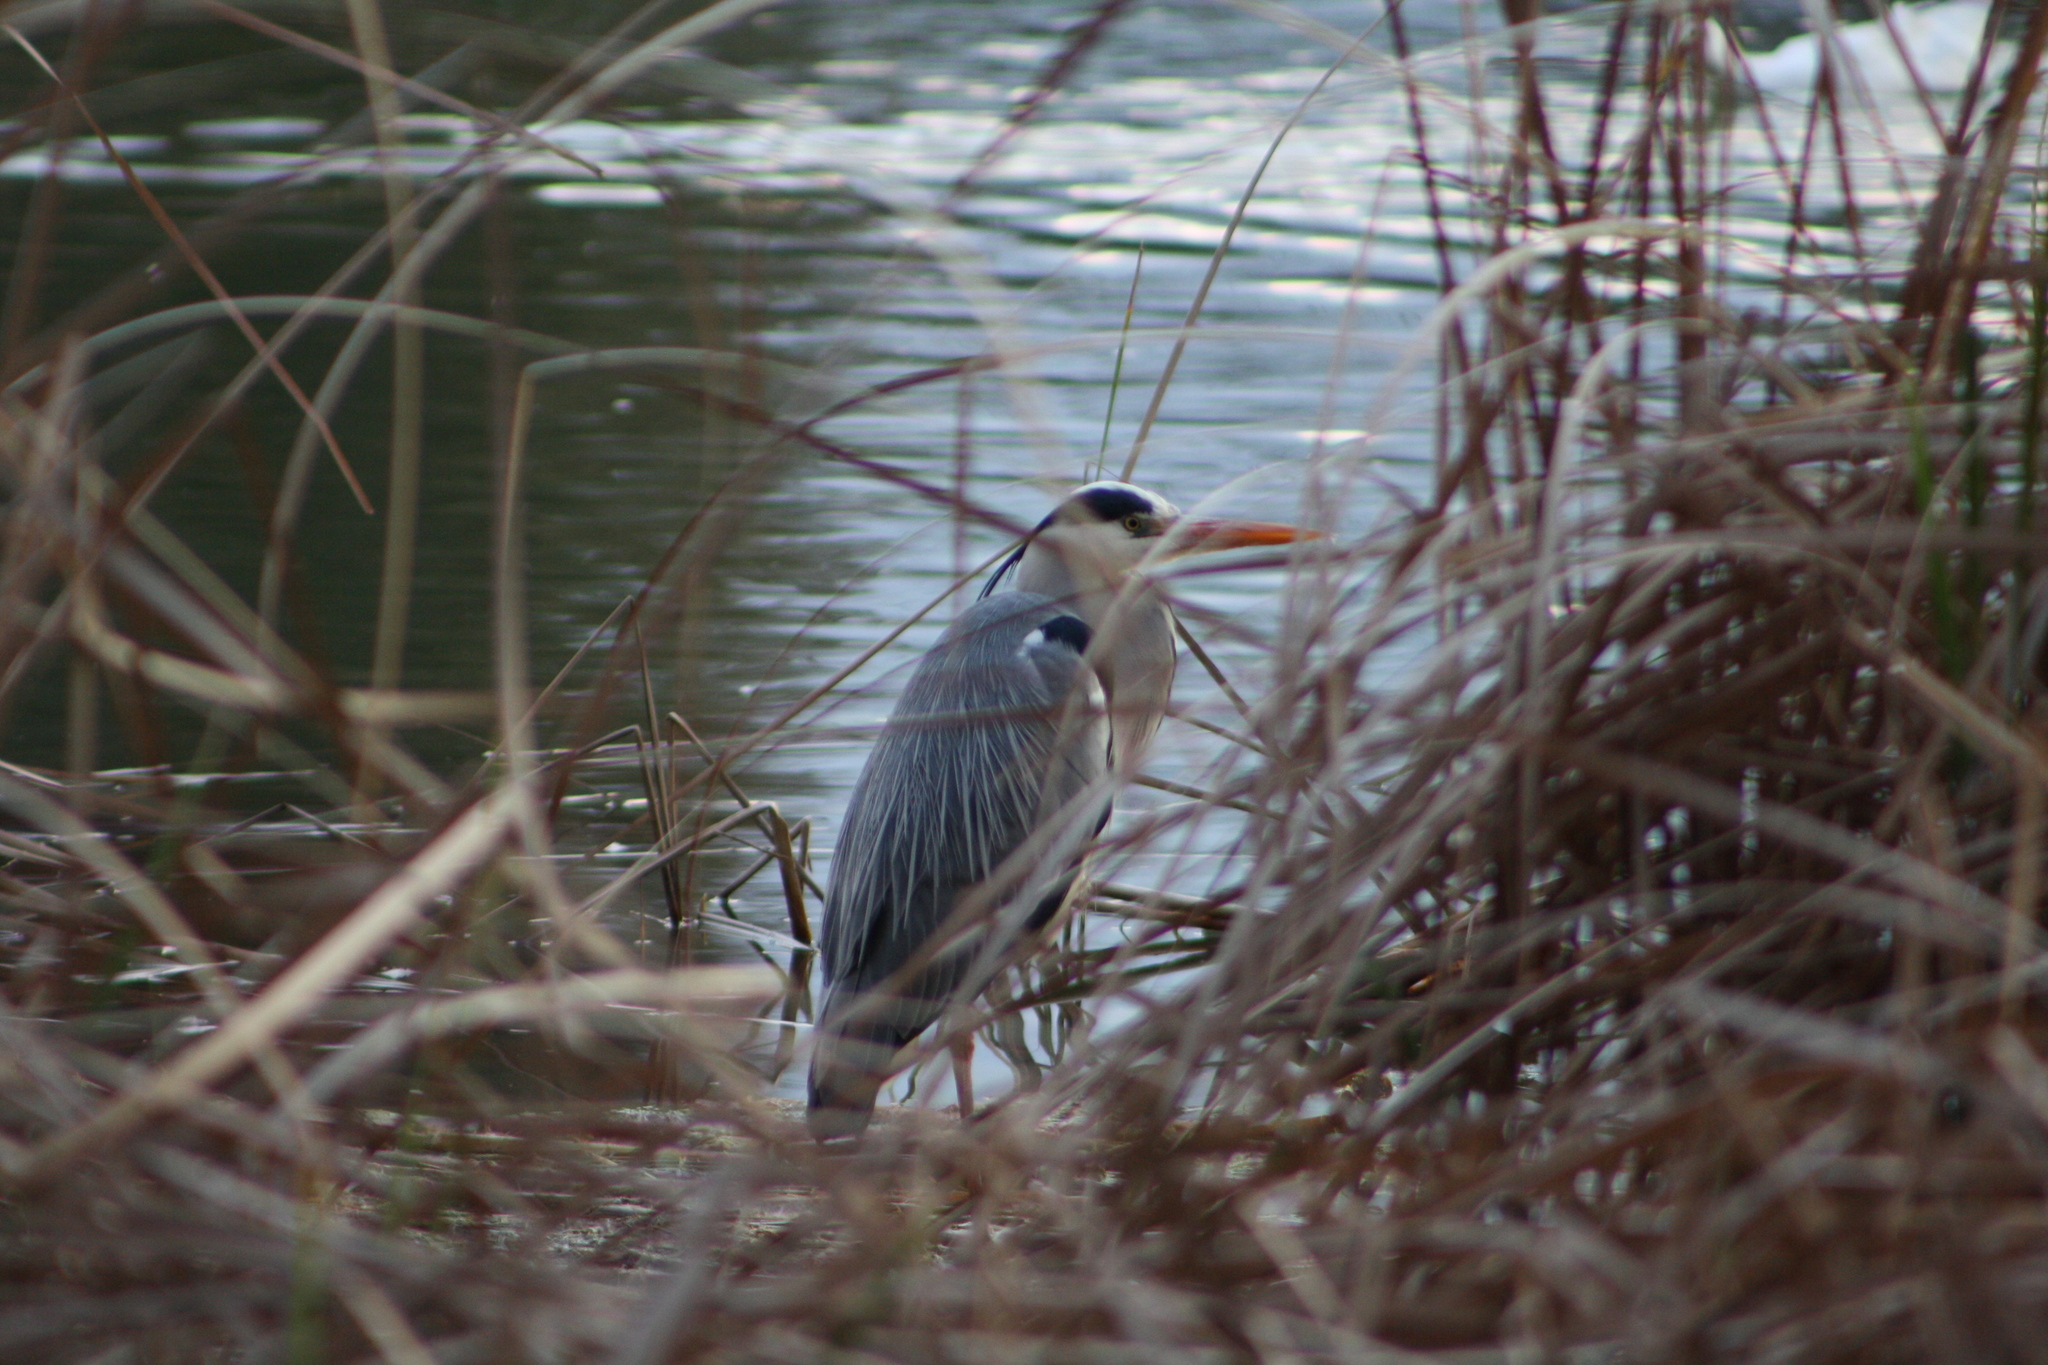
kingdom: Animalia
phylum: Chordata
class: Aves
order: Pelecaniformes
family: Ardeidae
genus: Ardea
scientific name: Ardea cinerea
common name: Grey heron
